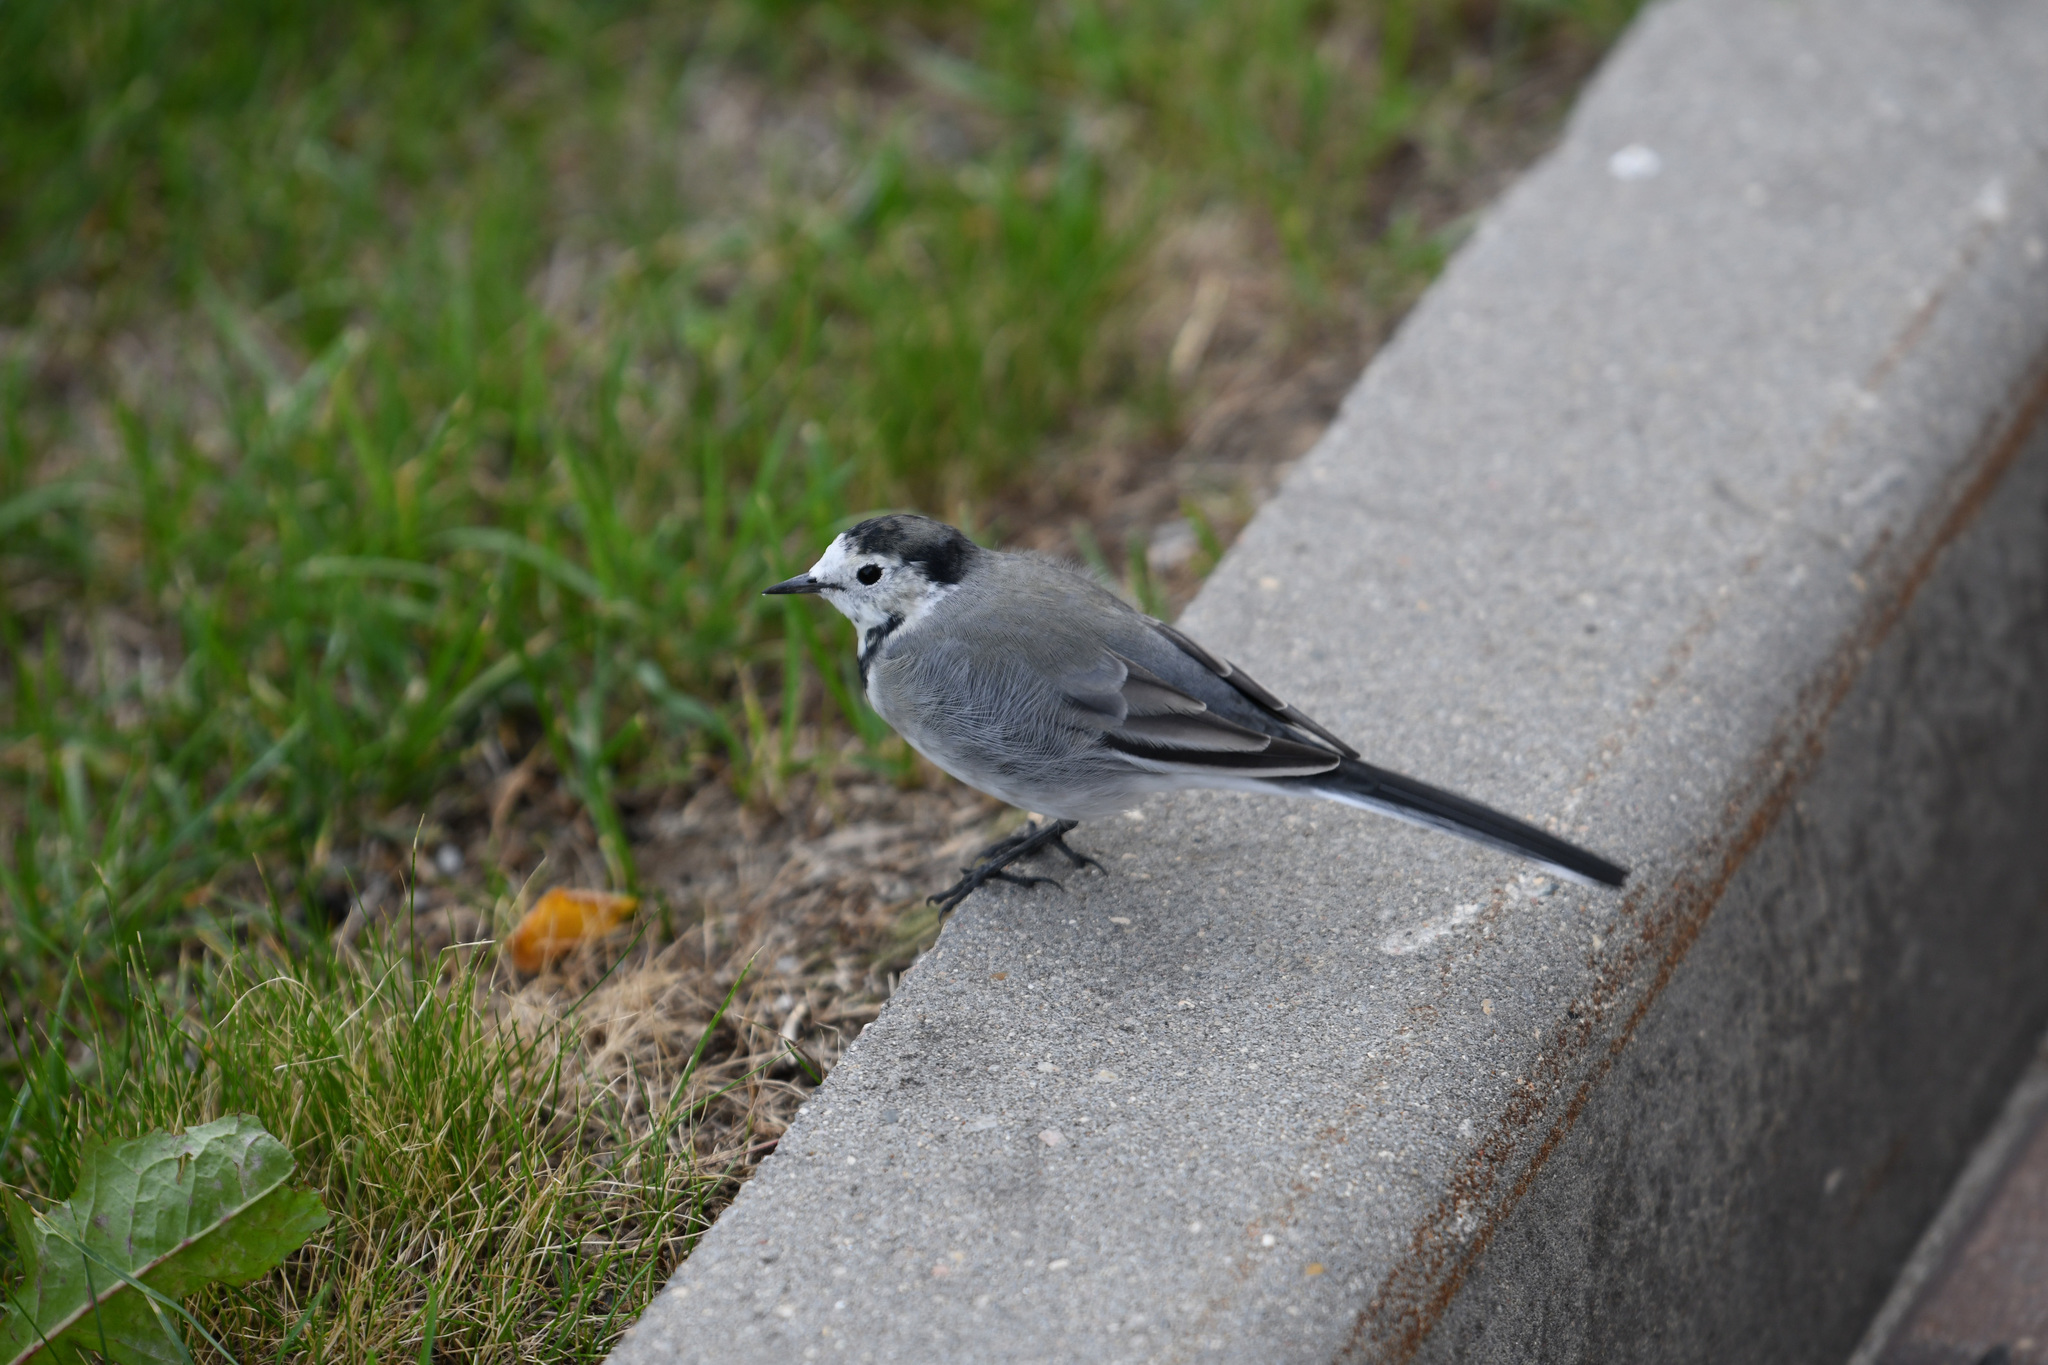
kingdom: Animalia
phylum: Chordata
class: Aves
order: Passeriformes
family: Motacillidae
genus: Motacilla
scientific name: Motacilla alba
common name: White wagtail
